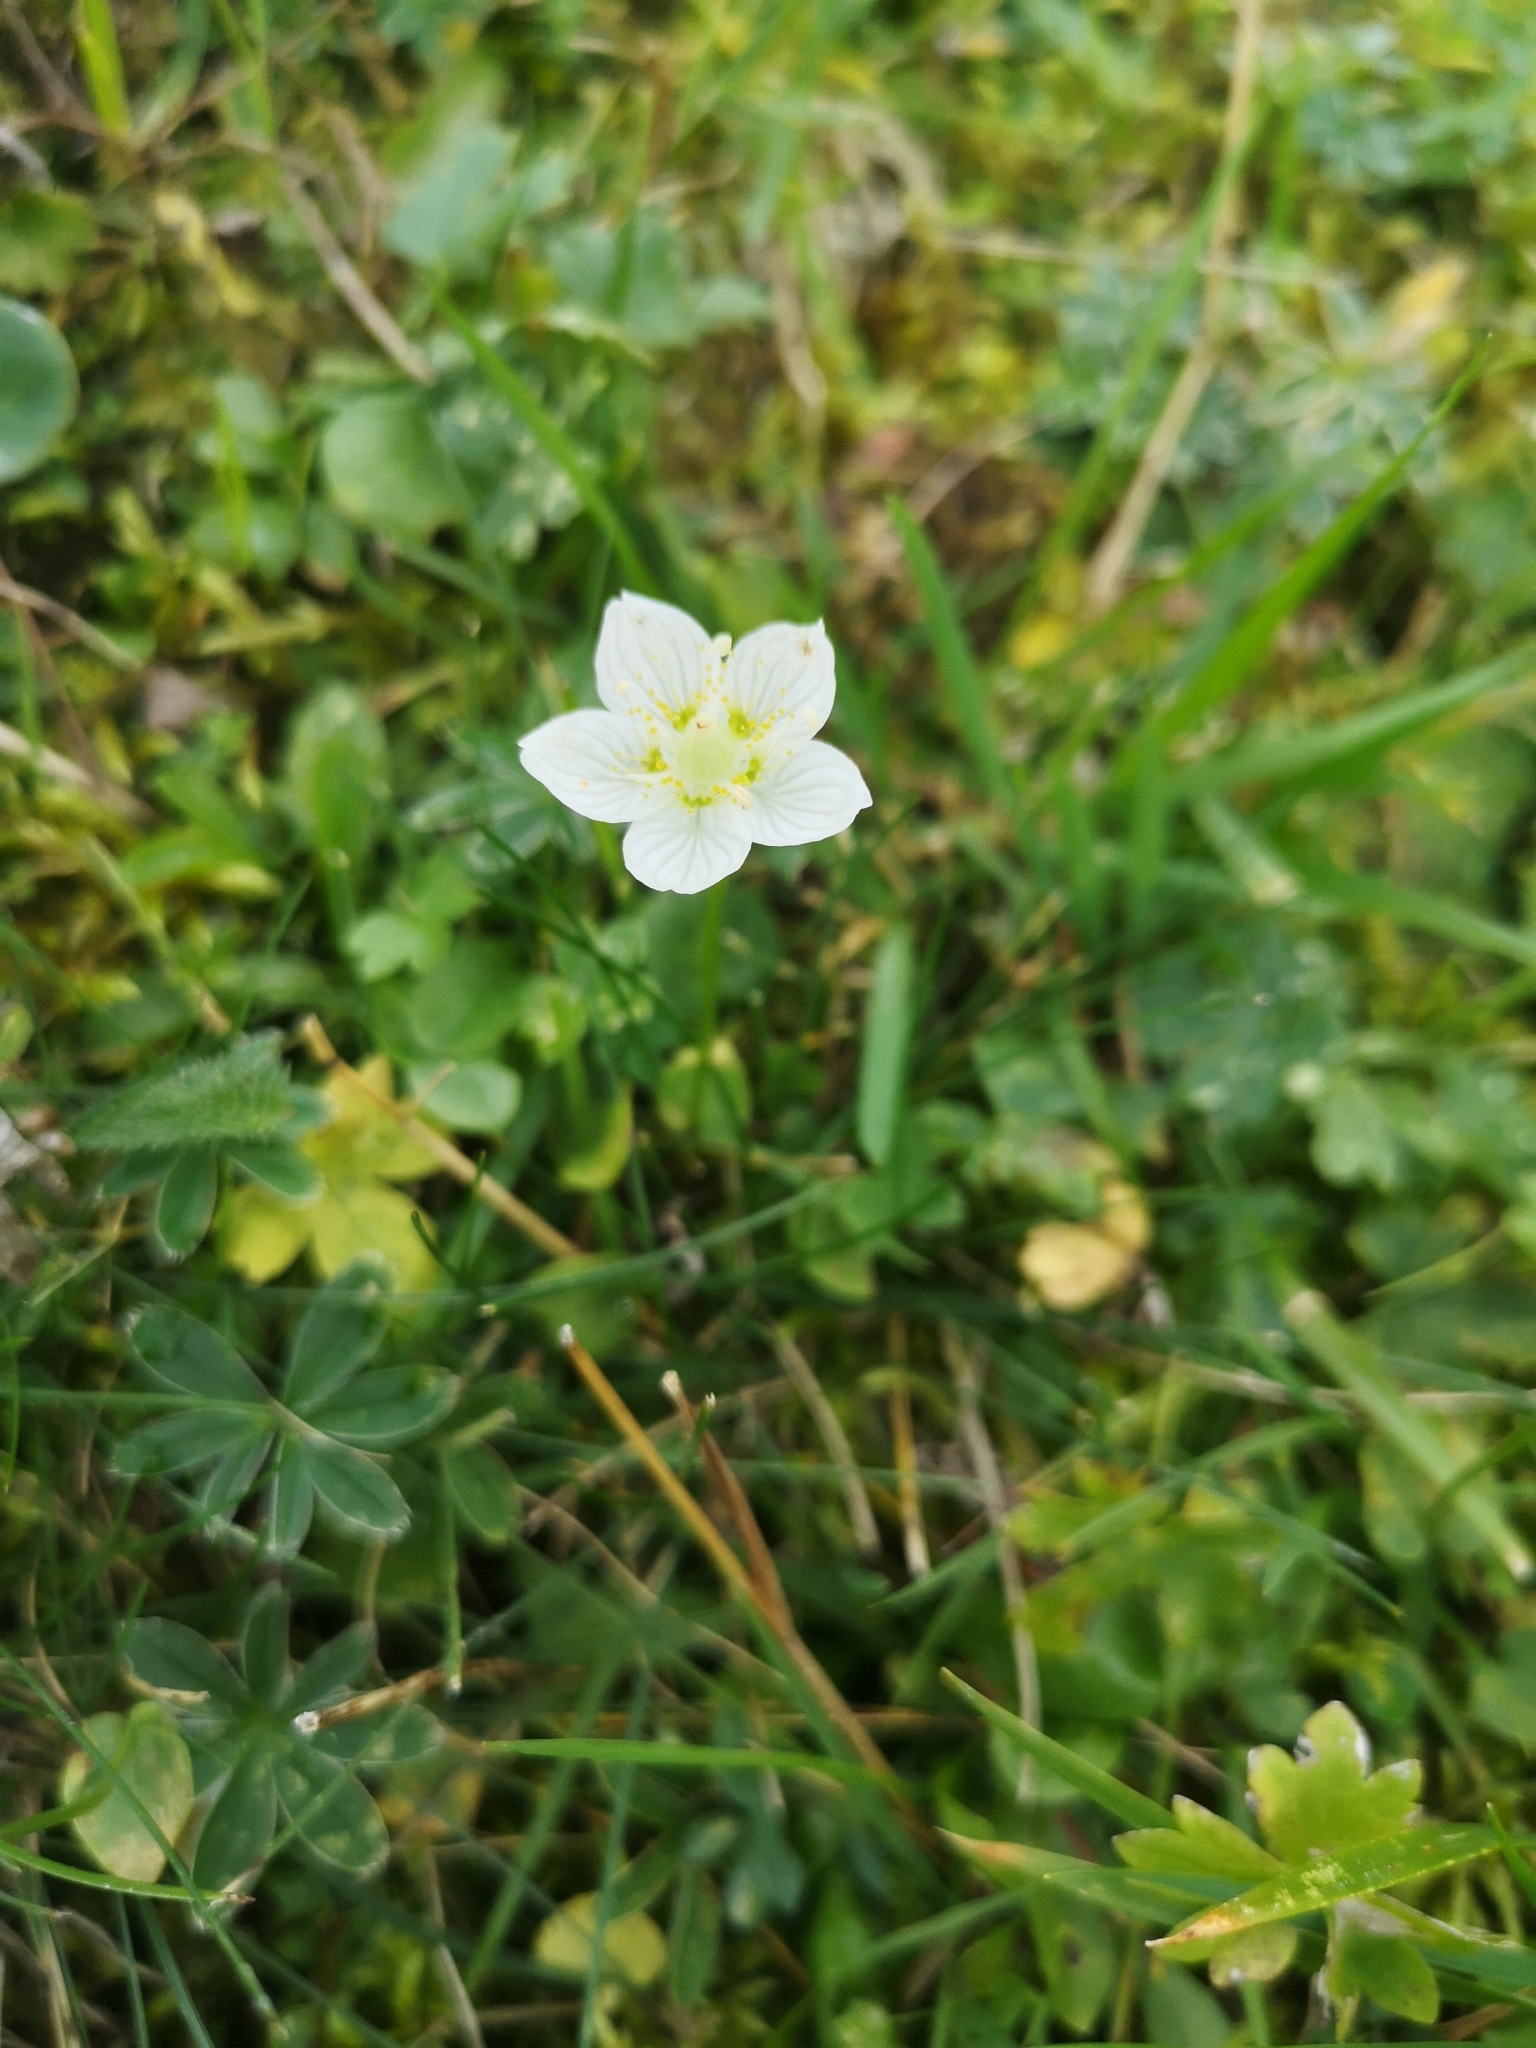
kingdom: Plantae
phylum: Tracheophyta
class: Magnoliopsida
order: Celastrales
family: Parnassiaceae
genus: Parnassia
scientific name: Parnassia palustris
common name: Grass-of-parnassus
